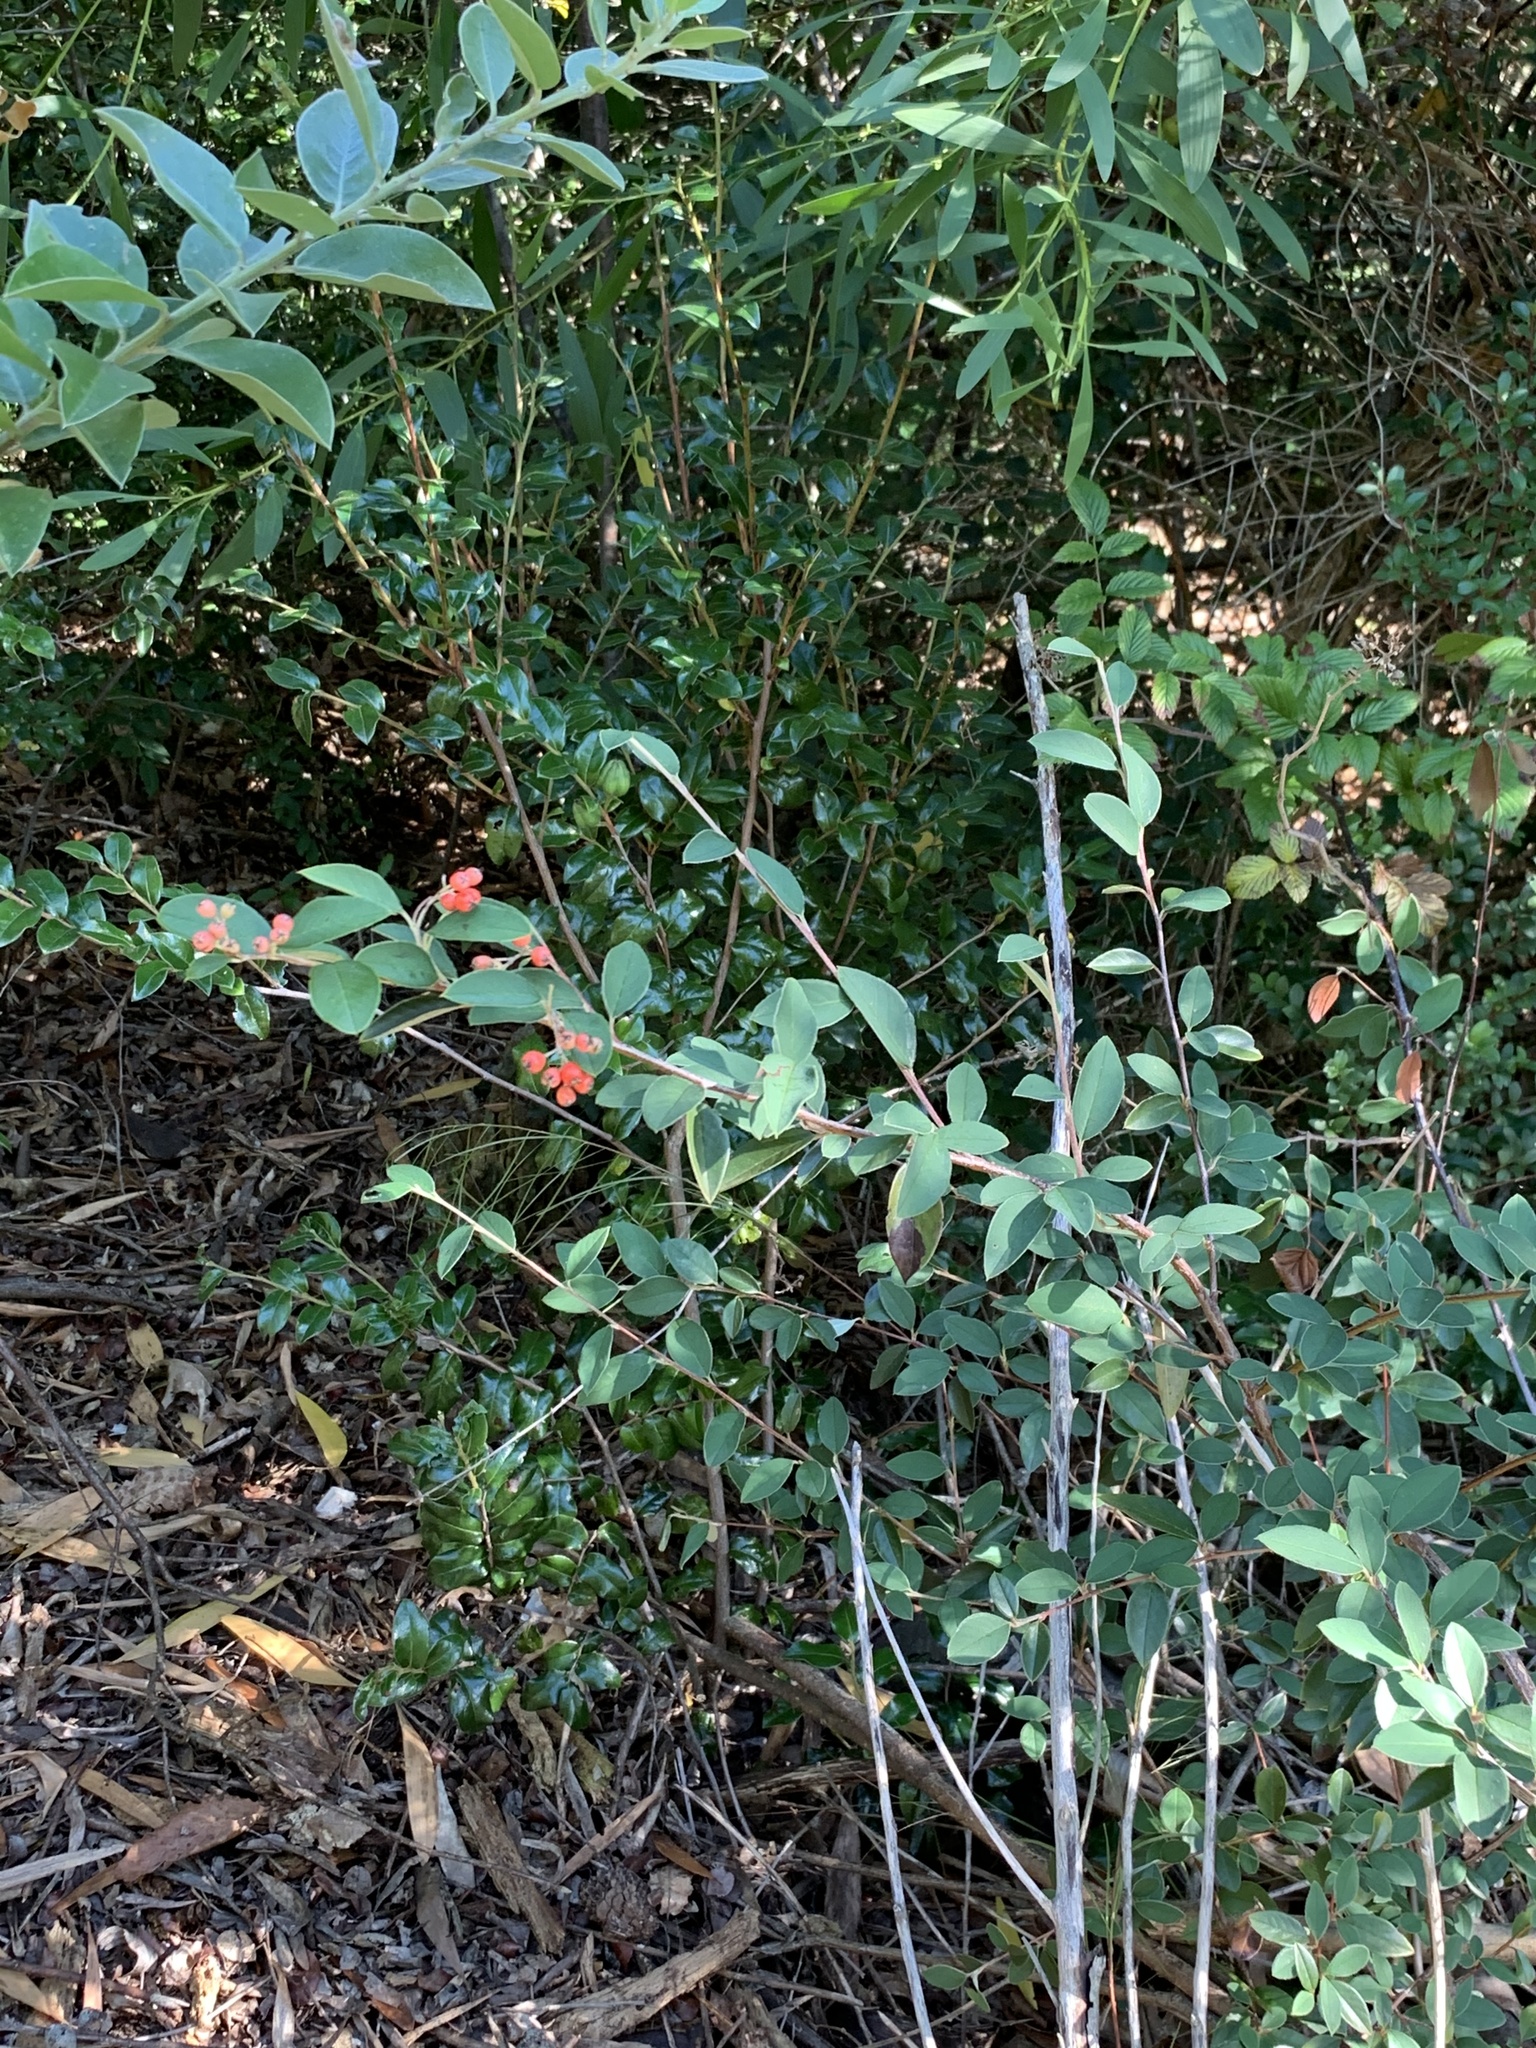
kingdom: Plantae
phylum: Tracheophyta
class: Magnoliopsida
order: Rosales
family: Rosaceae
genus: Cotoneaster
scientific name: Cotoneaster pannosus
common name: Silverleaf cotoneaster
